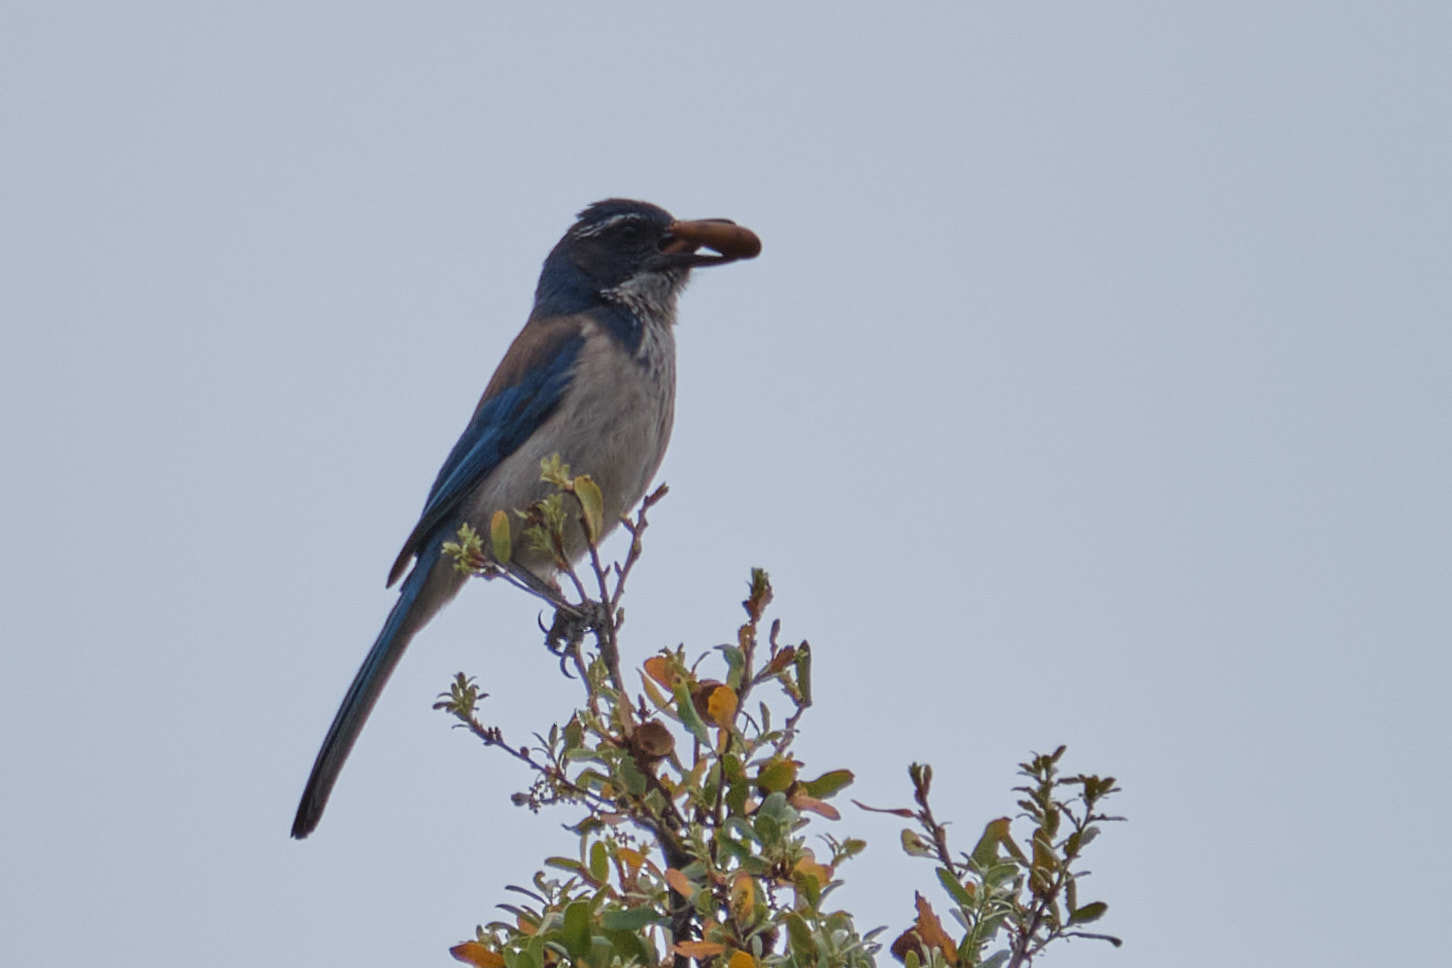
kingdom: Animalia
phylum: Chordata
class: Aves
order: Passeriformes
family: Corvidae
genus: Aphelocoma
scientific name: Aphelocoma californica
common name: California scrub-jay
